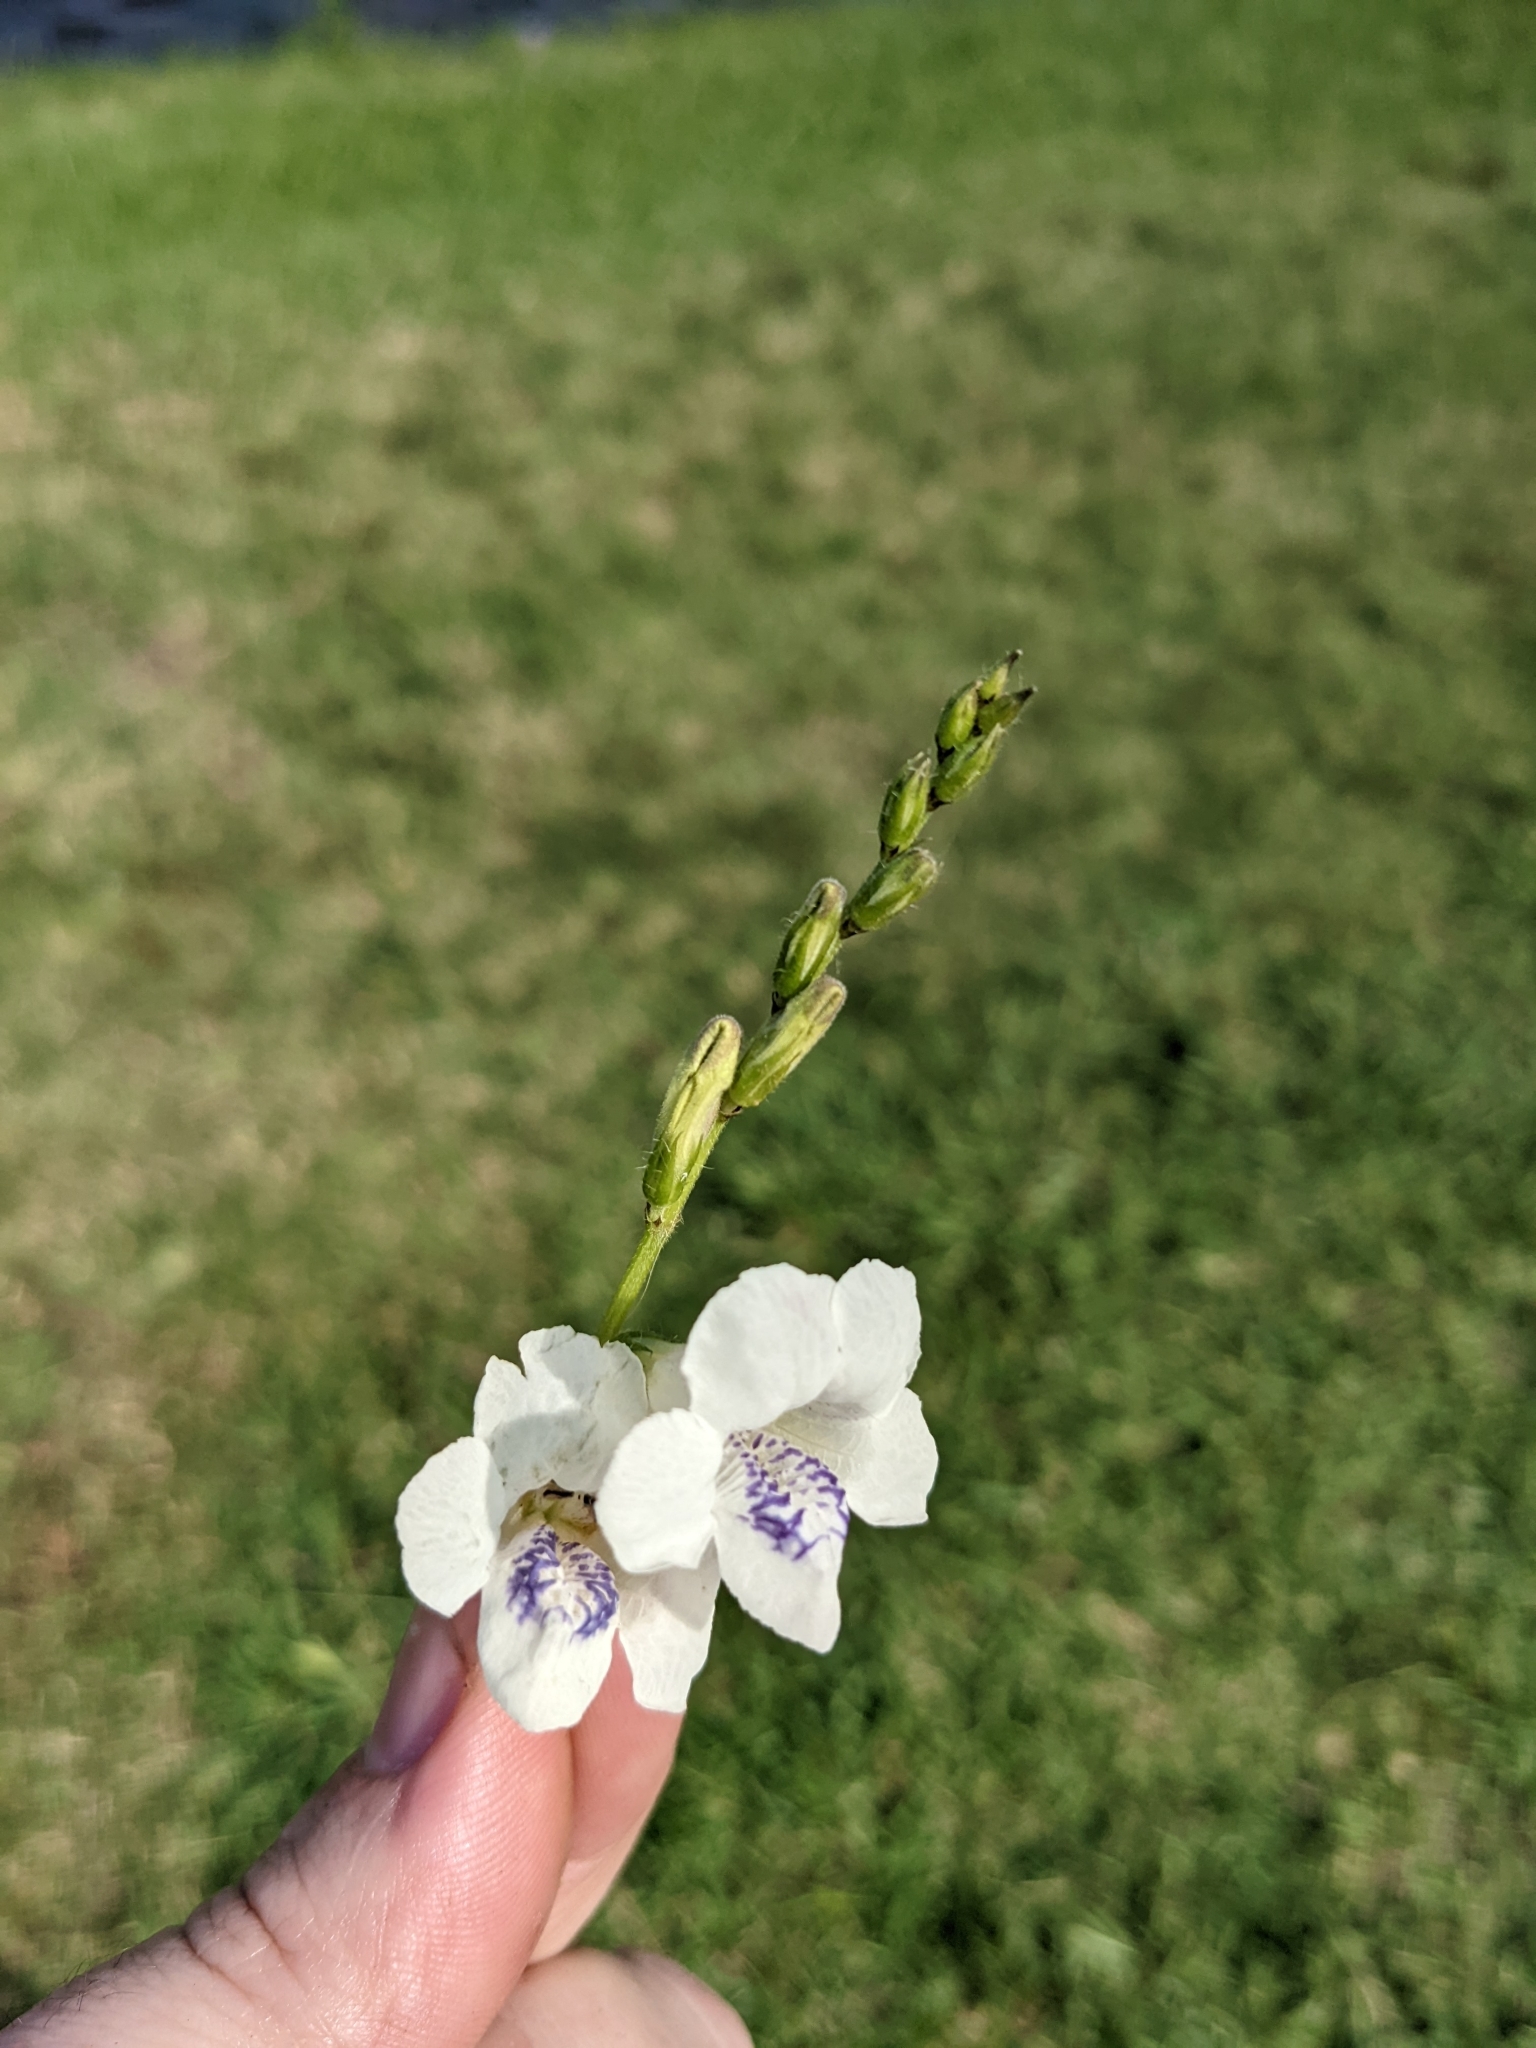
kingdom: Plantae
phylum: Tracheophyta
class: Magnoliopsida
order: Lamiales
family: Acanthaceae
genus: Asystasia
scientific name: Asystasia intrusa
